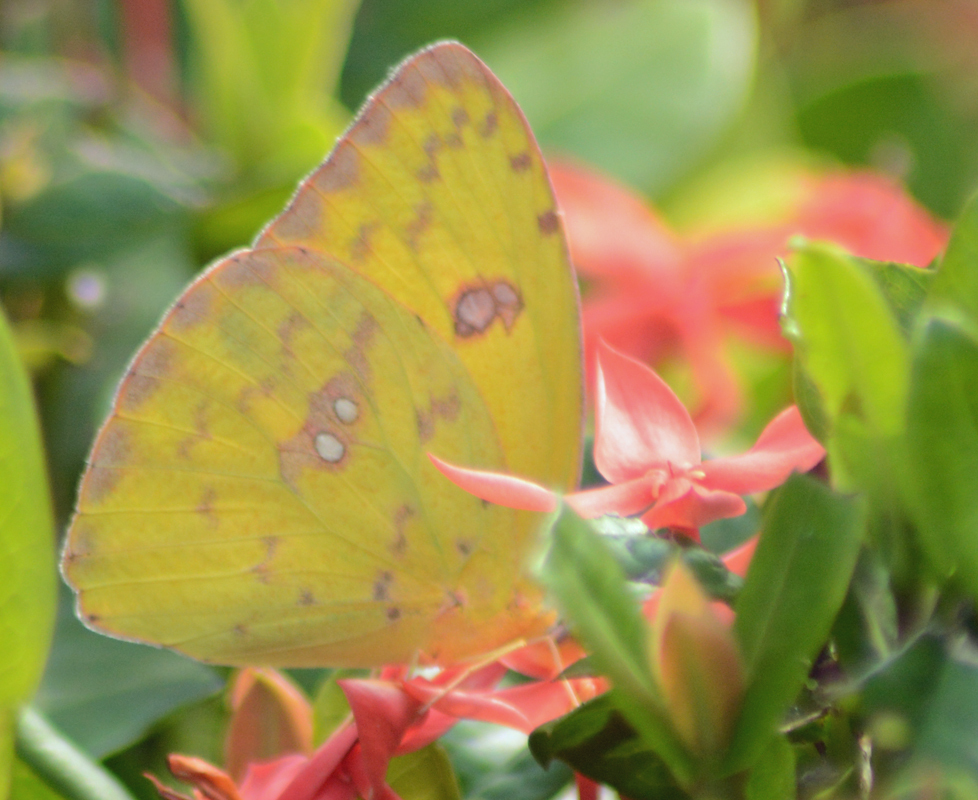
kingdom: Animalia
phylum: Arthropoda
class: Insecta
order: Lepidoptera
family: Pieridae
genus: Phoebis
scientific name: Phoebis marcellina
